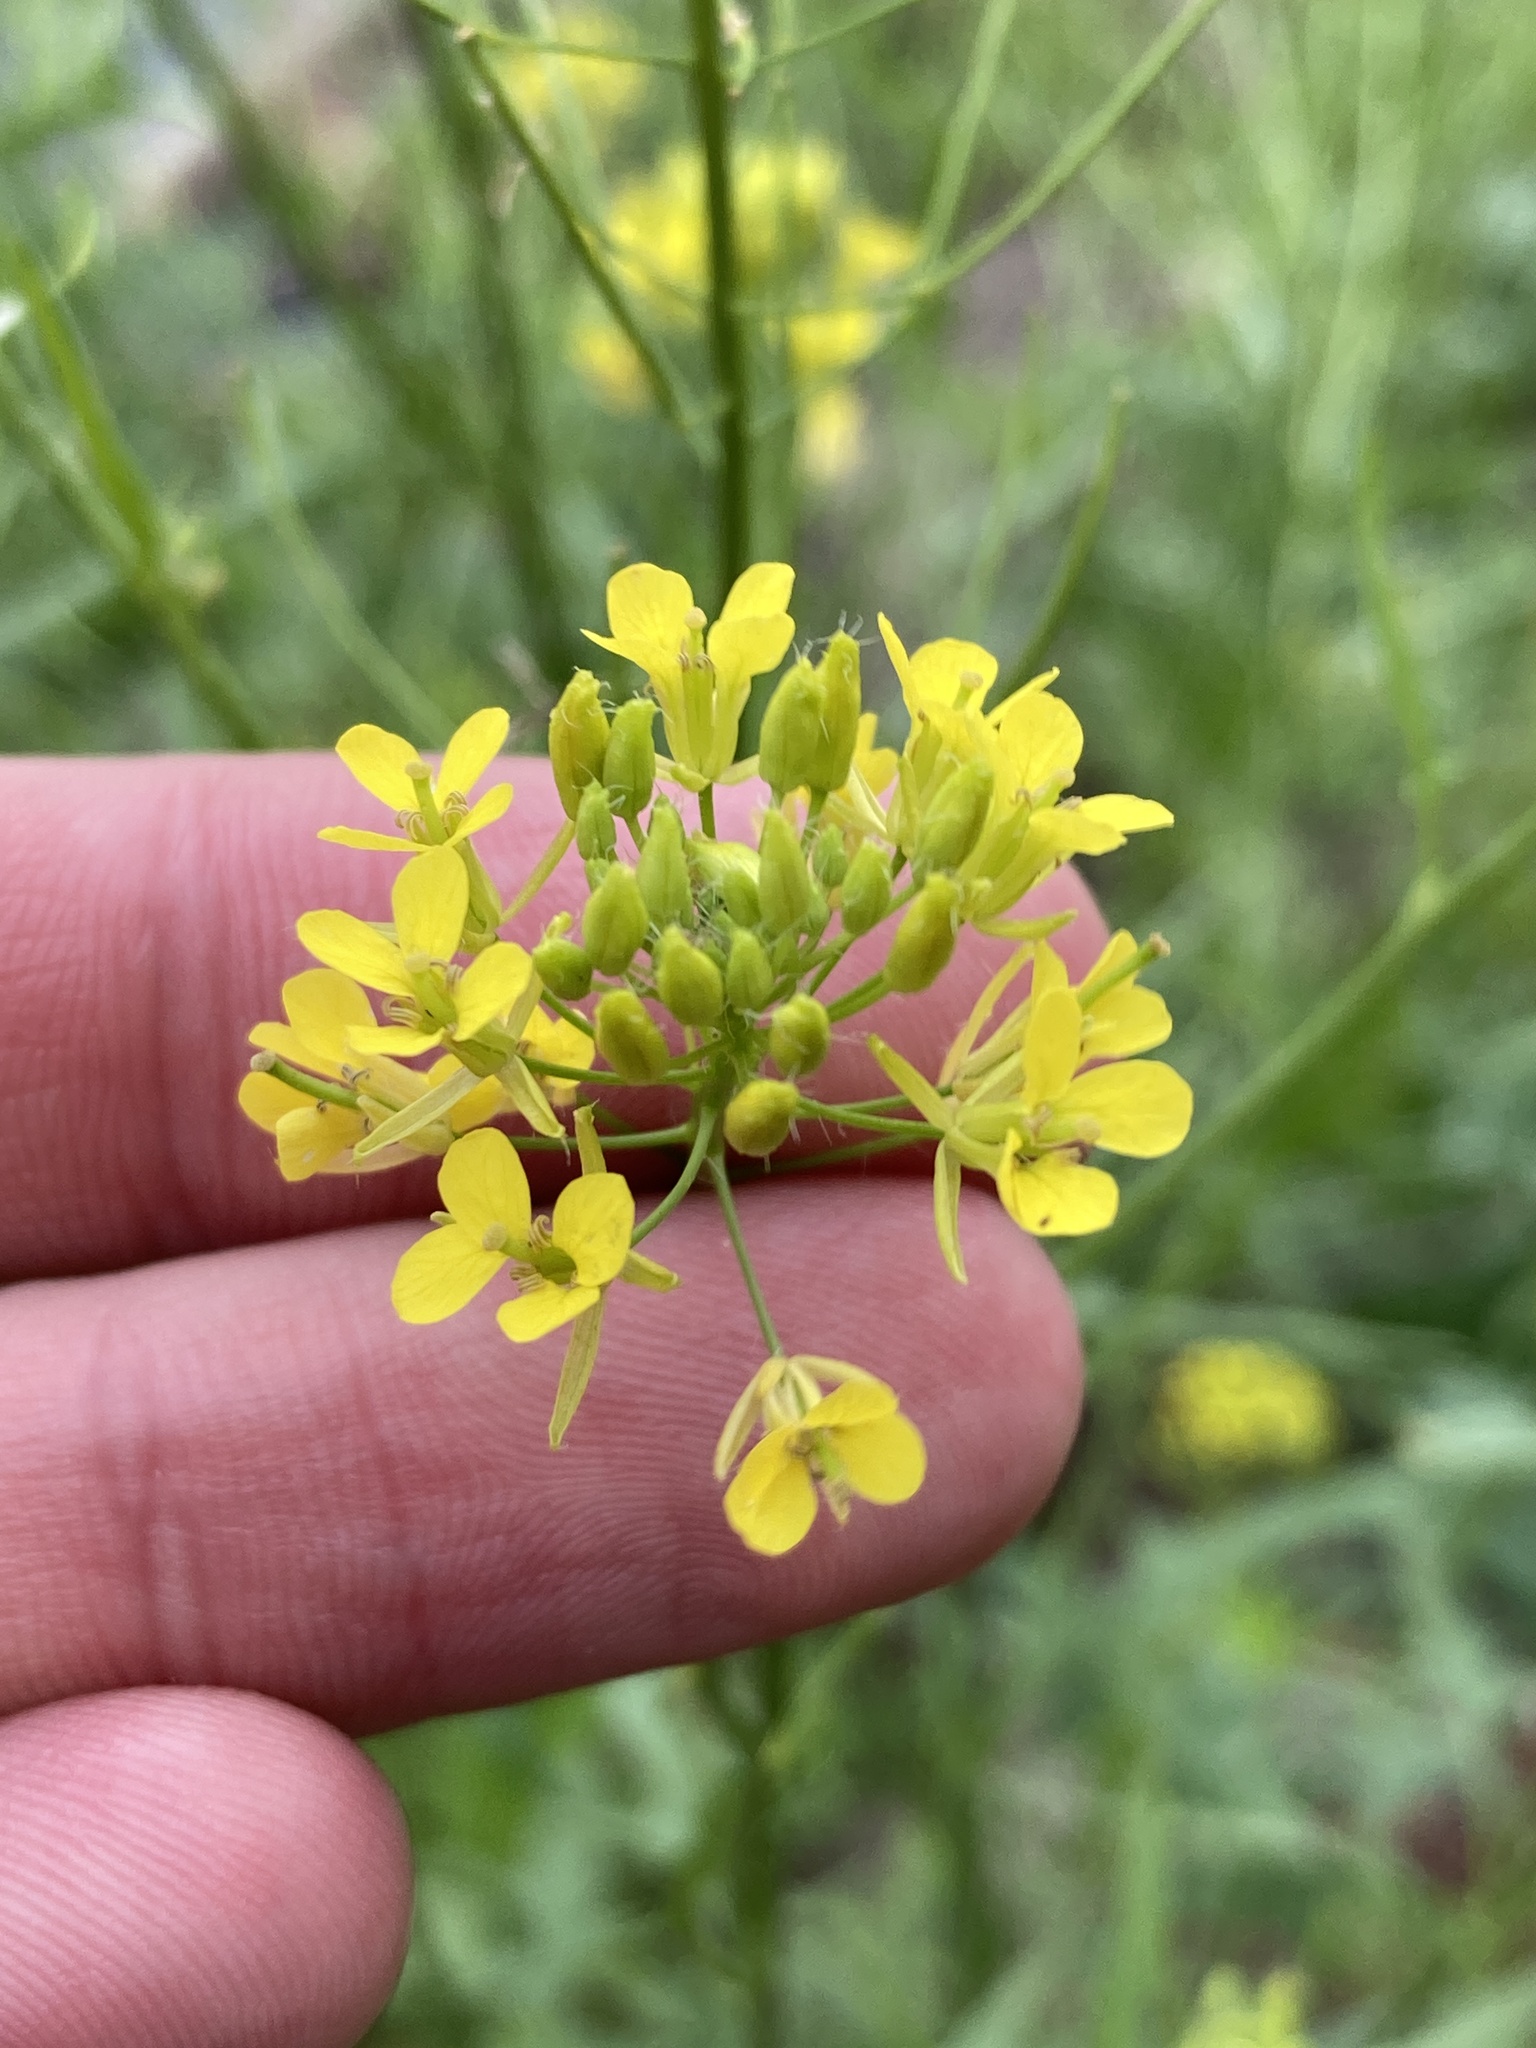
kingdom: Plantae
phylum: Tracheophyta
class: Magnoliopsida
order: Brassicales
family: Brassicaceae
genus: Sisymbrium
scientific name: Sisymbrium loeselii
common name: False london-rocket
